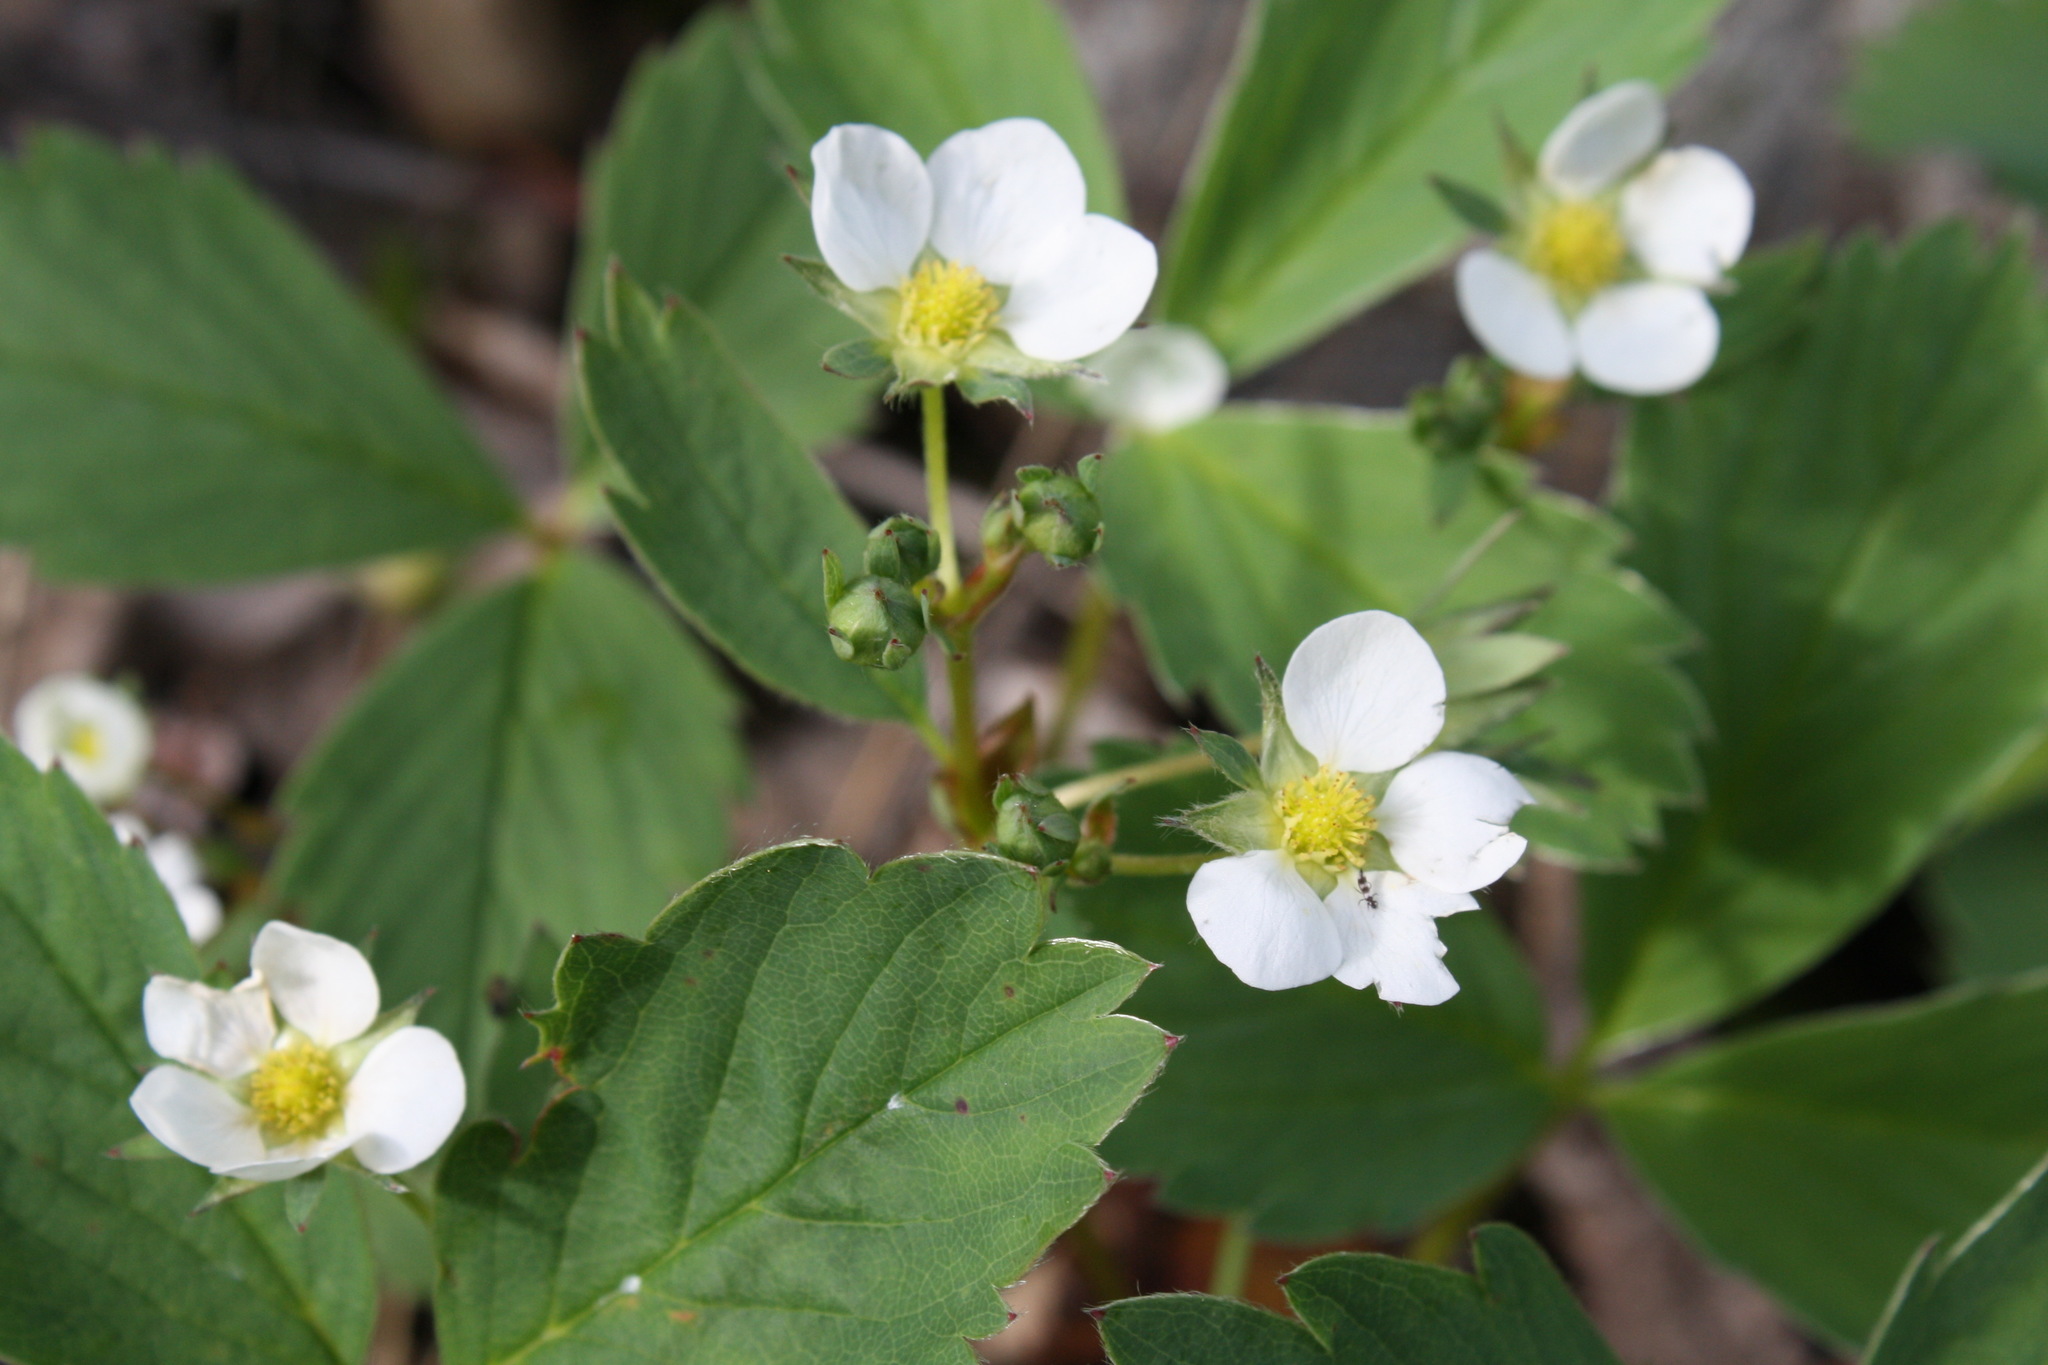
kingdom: Plantae
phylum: Tracheophyta
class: Magnoliopsida
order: Rosales
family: Rosaceae
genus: Fragaria
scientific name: Fragaria virginiana
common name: Thickleaved wild strawberry
